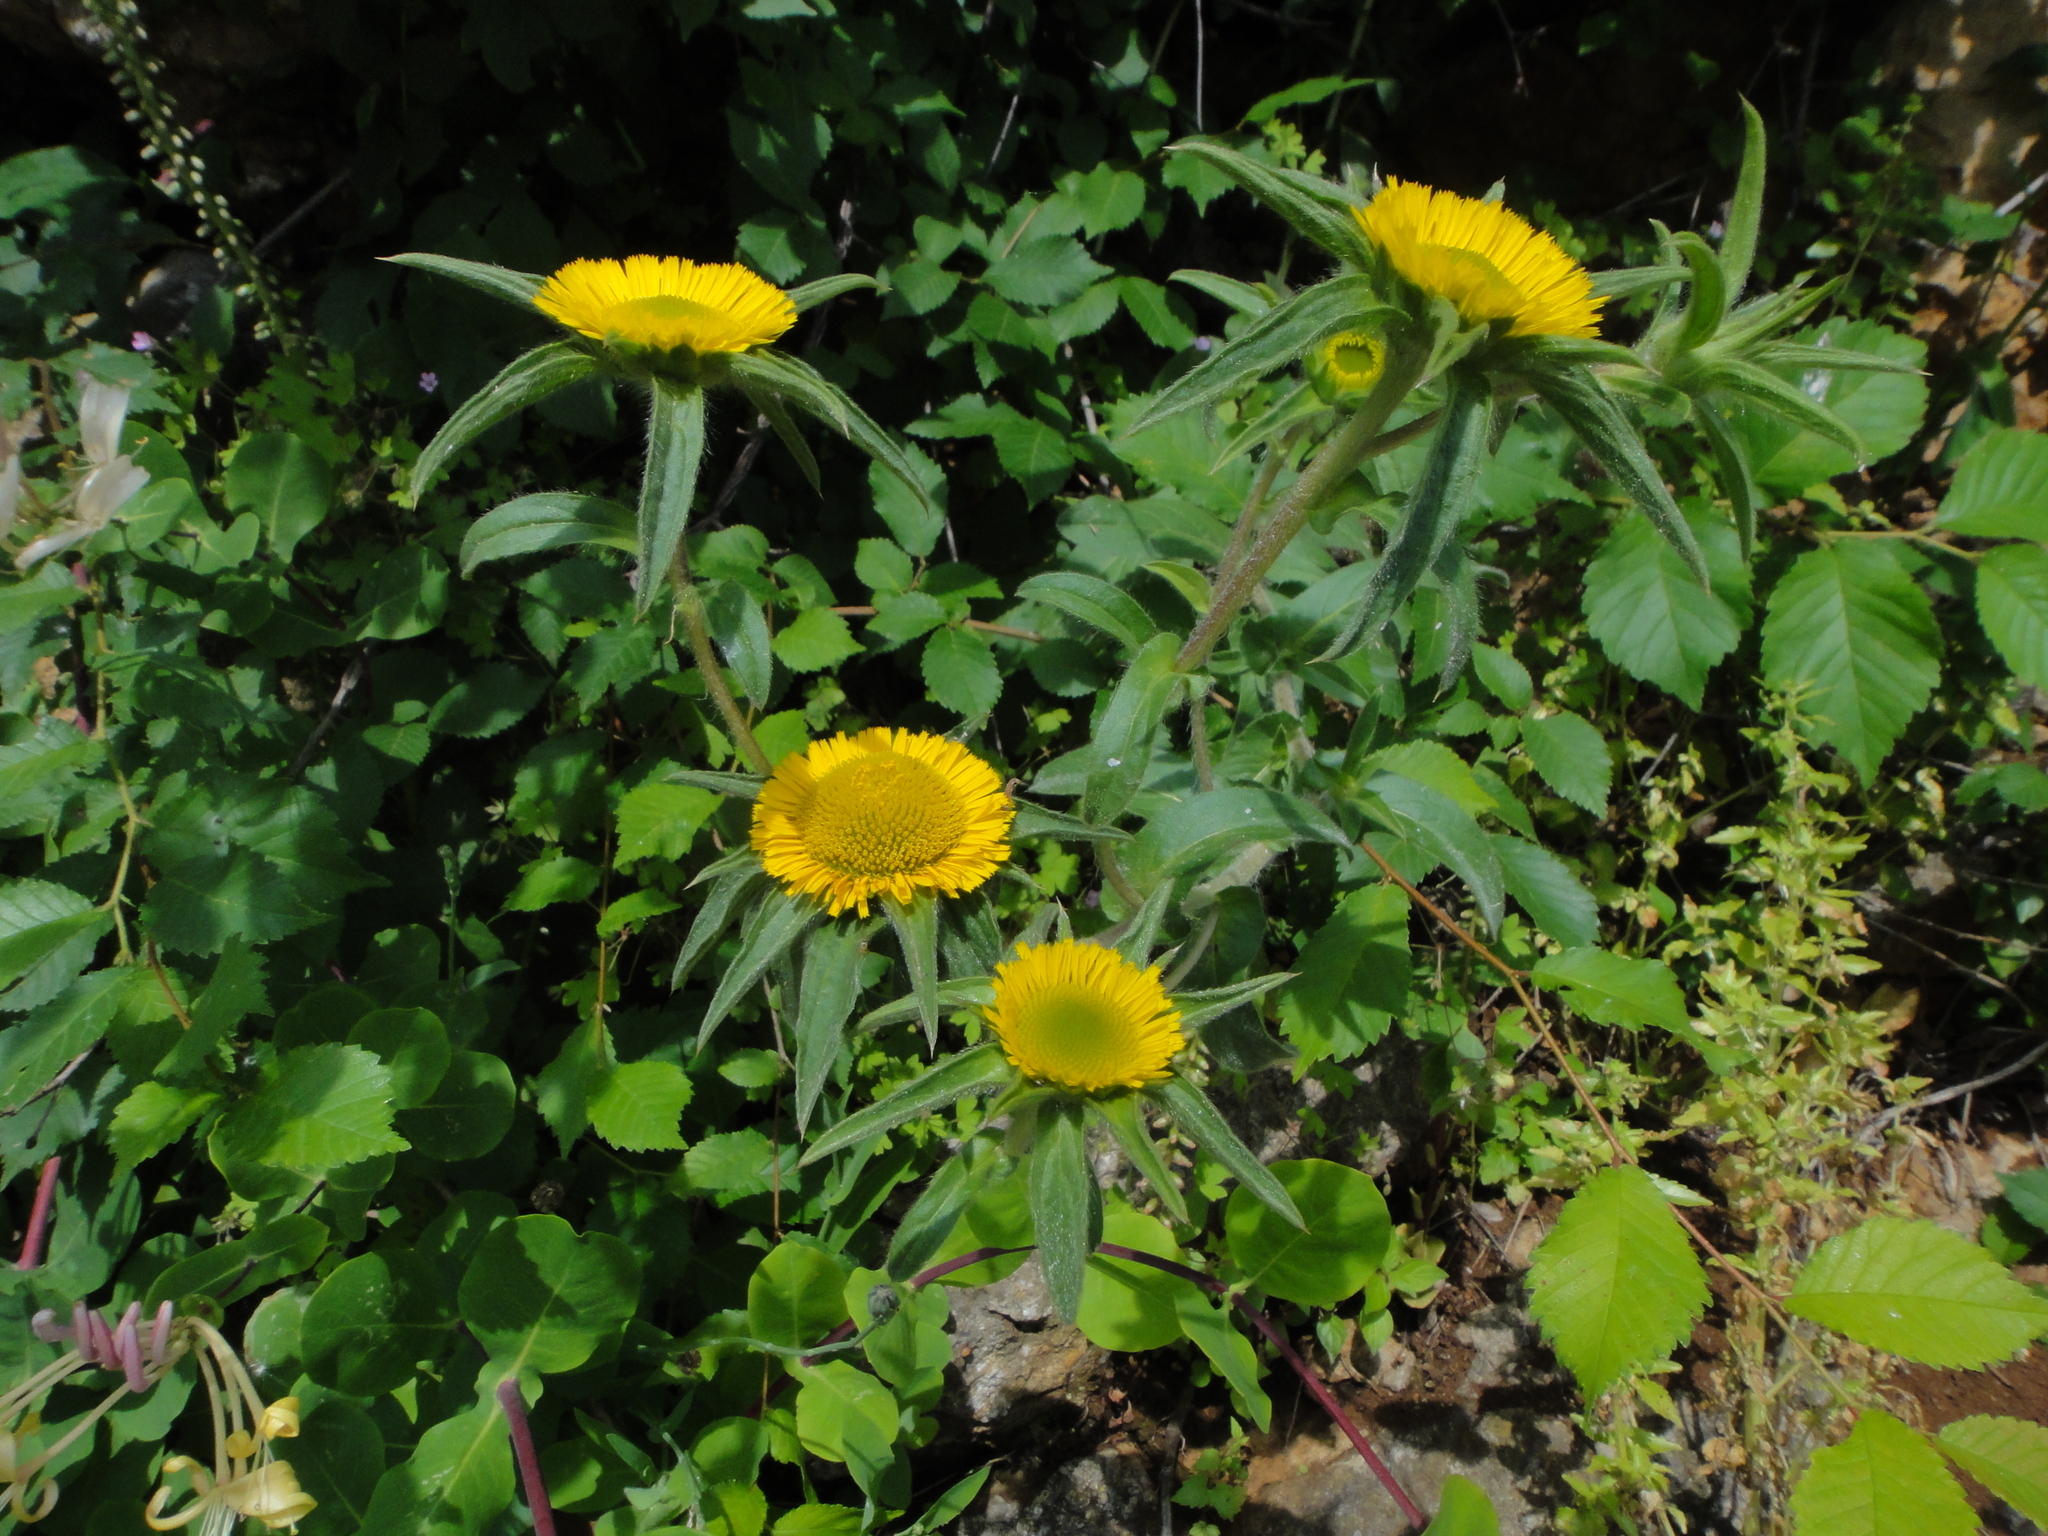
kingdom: Plantae
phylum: Tracheophyta
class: Magnoliopsida
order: Asterales
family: Asteraceae
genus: Pallenis
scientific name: Pallenis spinosa
